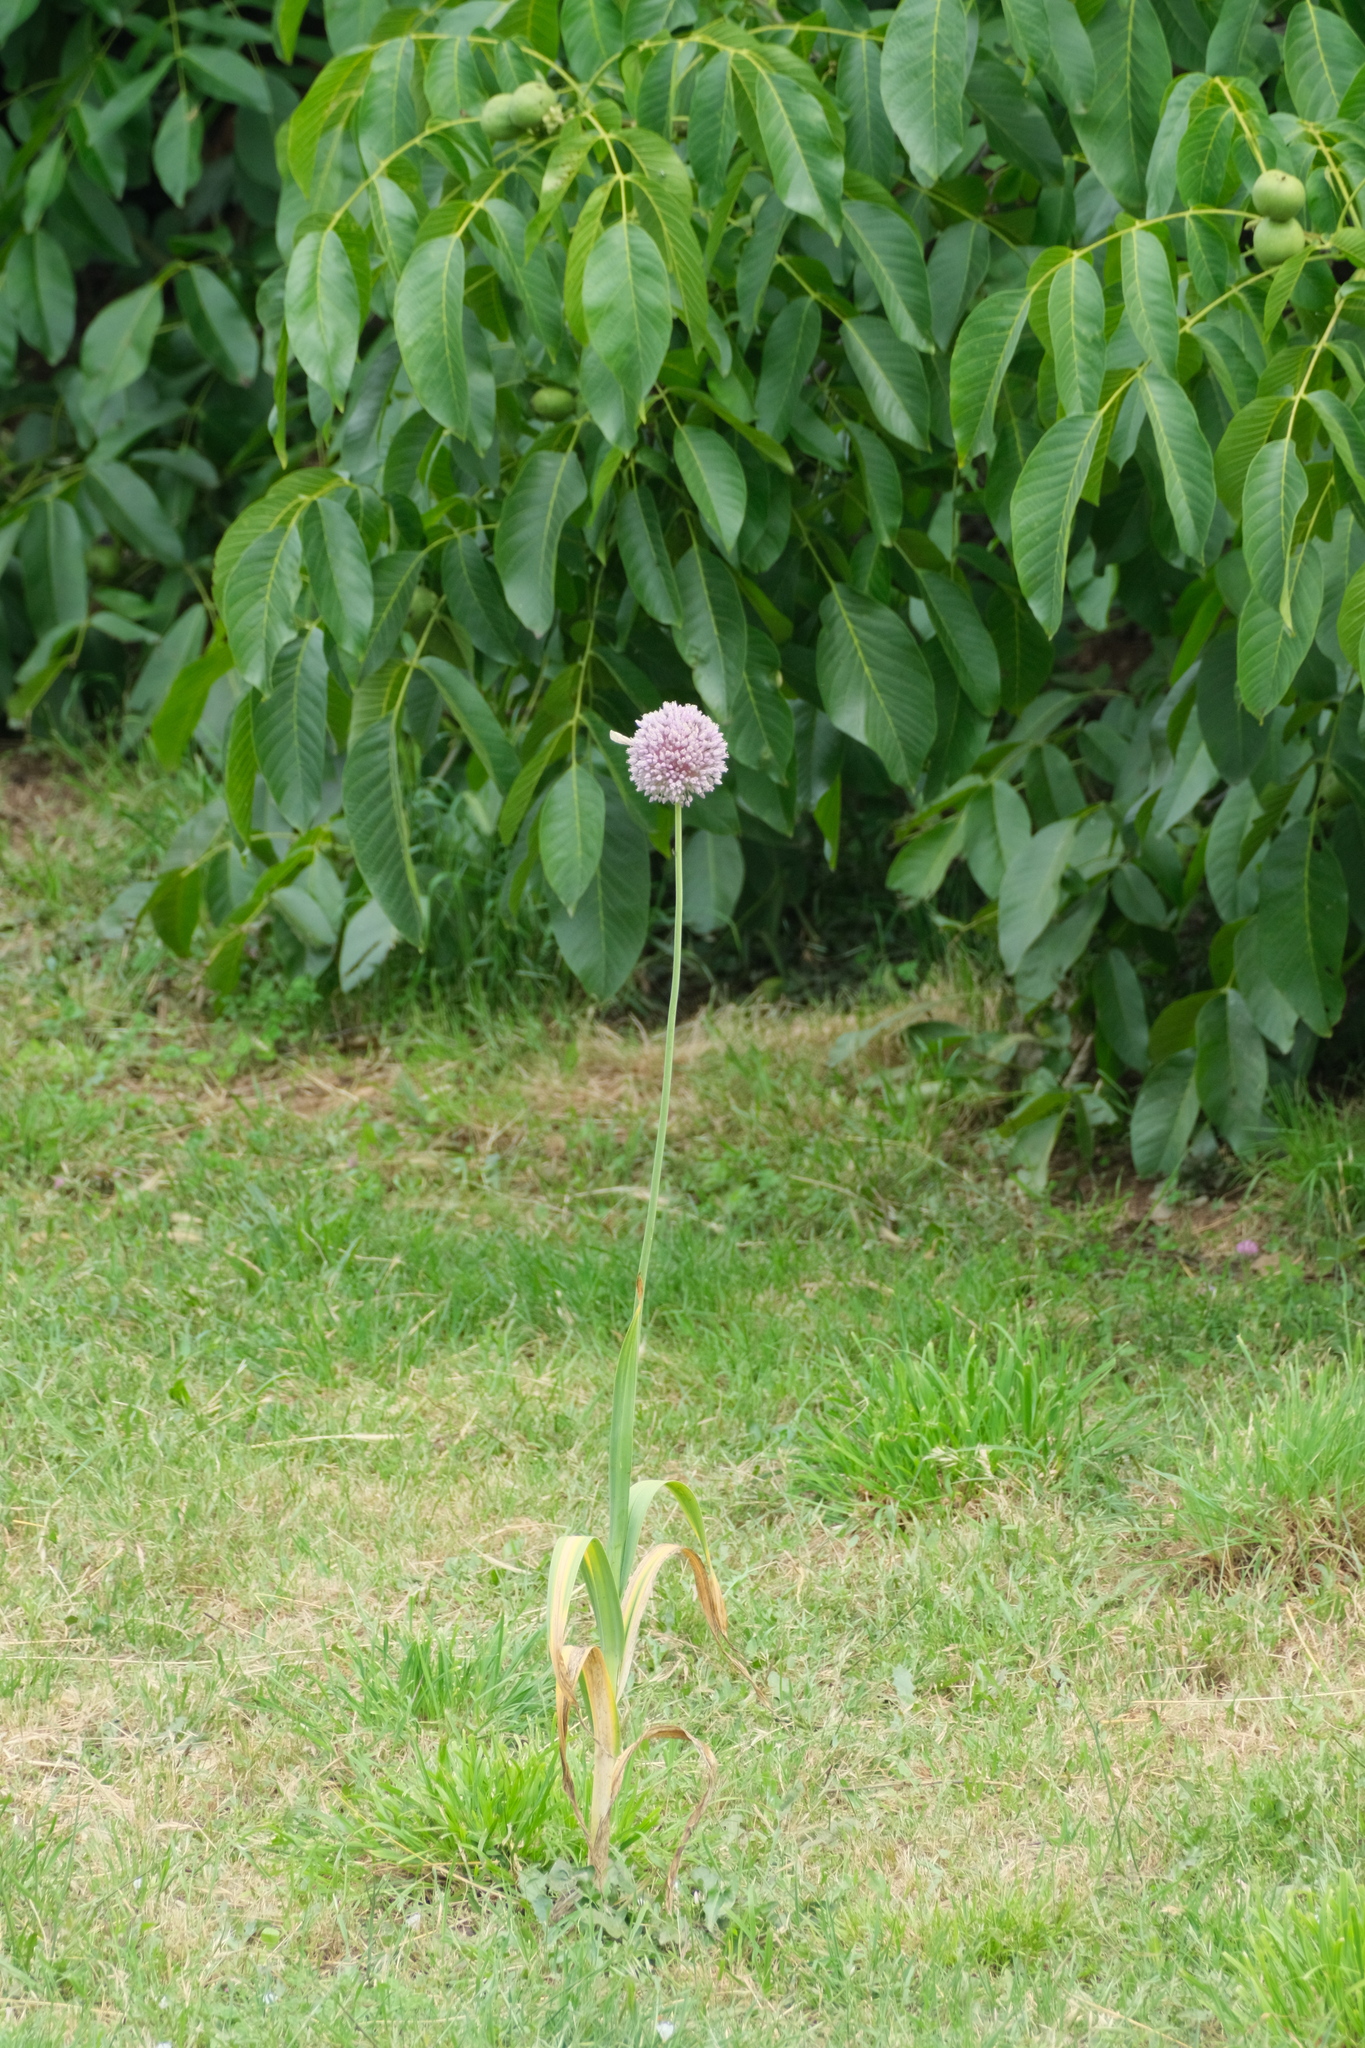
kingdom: Plantae
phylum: Tracheophyta
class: Liliopsida
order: Asparagales
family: Amaryllidaceae
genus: Allium
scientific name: Allium ampeloprasum
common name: Wild leek
